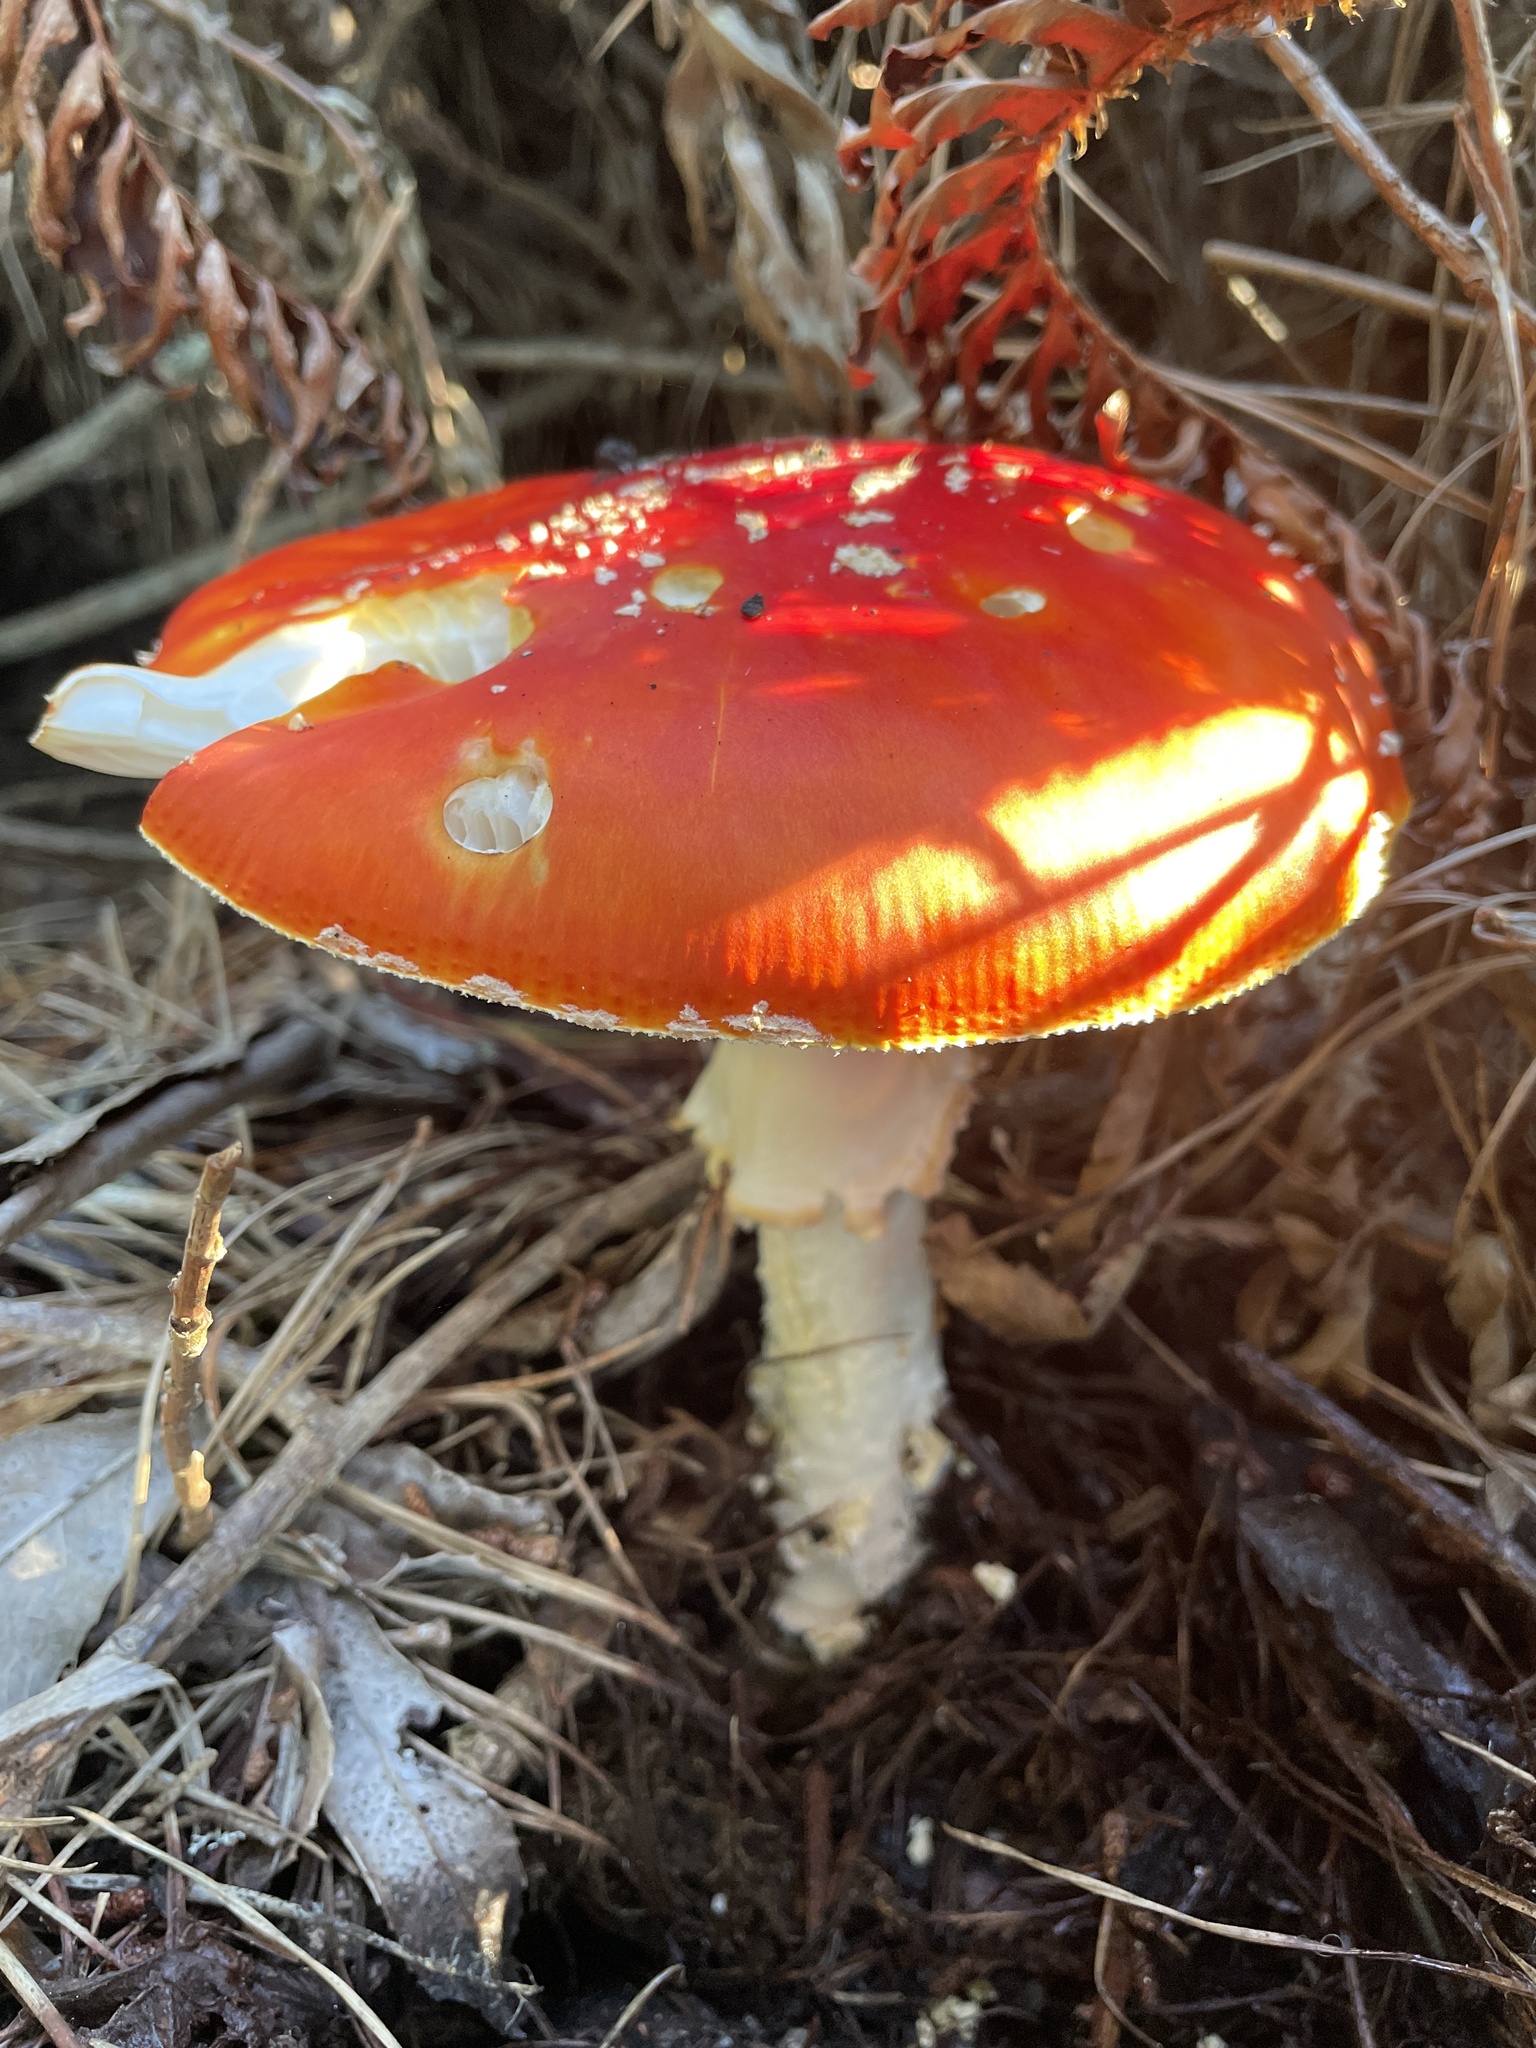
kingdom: Fungi
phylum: Basidiomycota
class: Agaricomycetes
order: Agaricales
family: Amanitaceae
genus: Amanita
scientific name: Amanita muscaria
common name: Fly agaric
